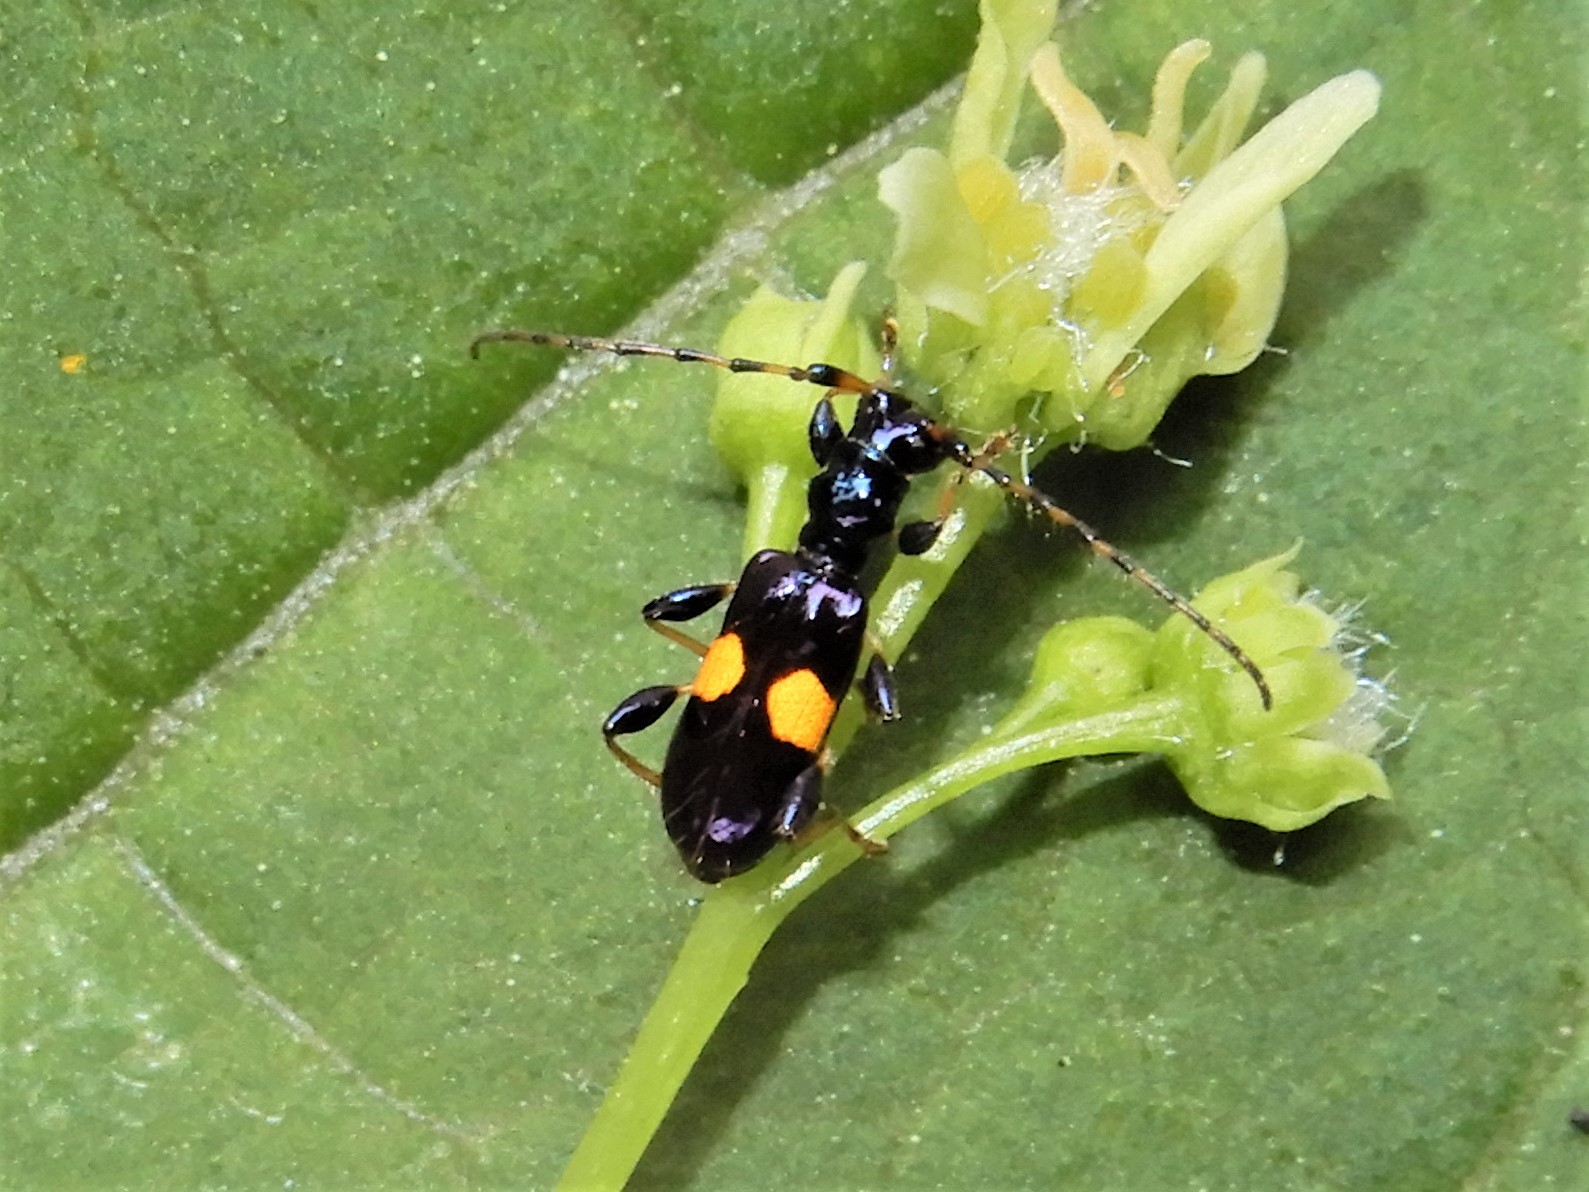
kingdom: Animalia
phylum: Arthropoda
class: Insecta
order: Coleoptera
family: Cerambycidae
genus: Zorion
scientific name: Zorion guttigerum
